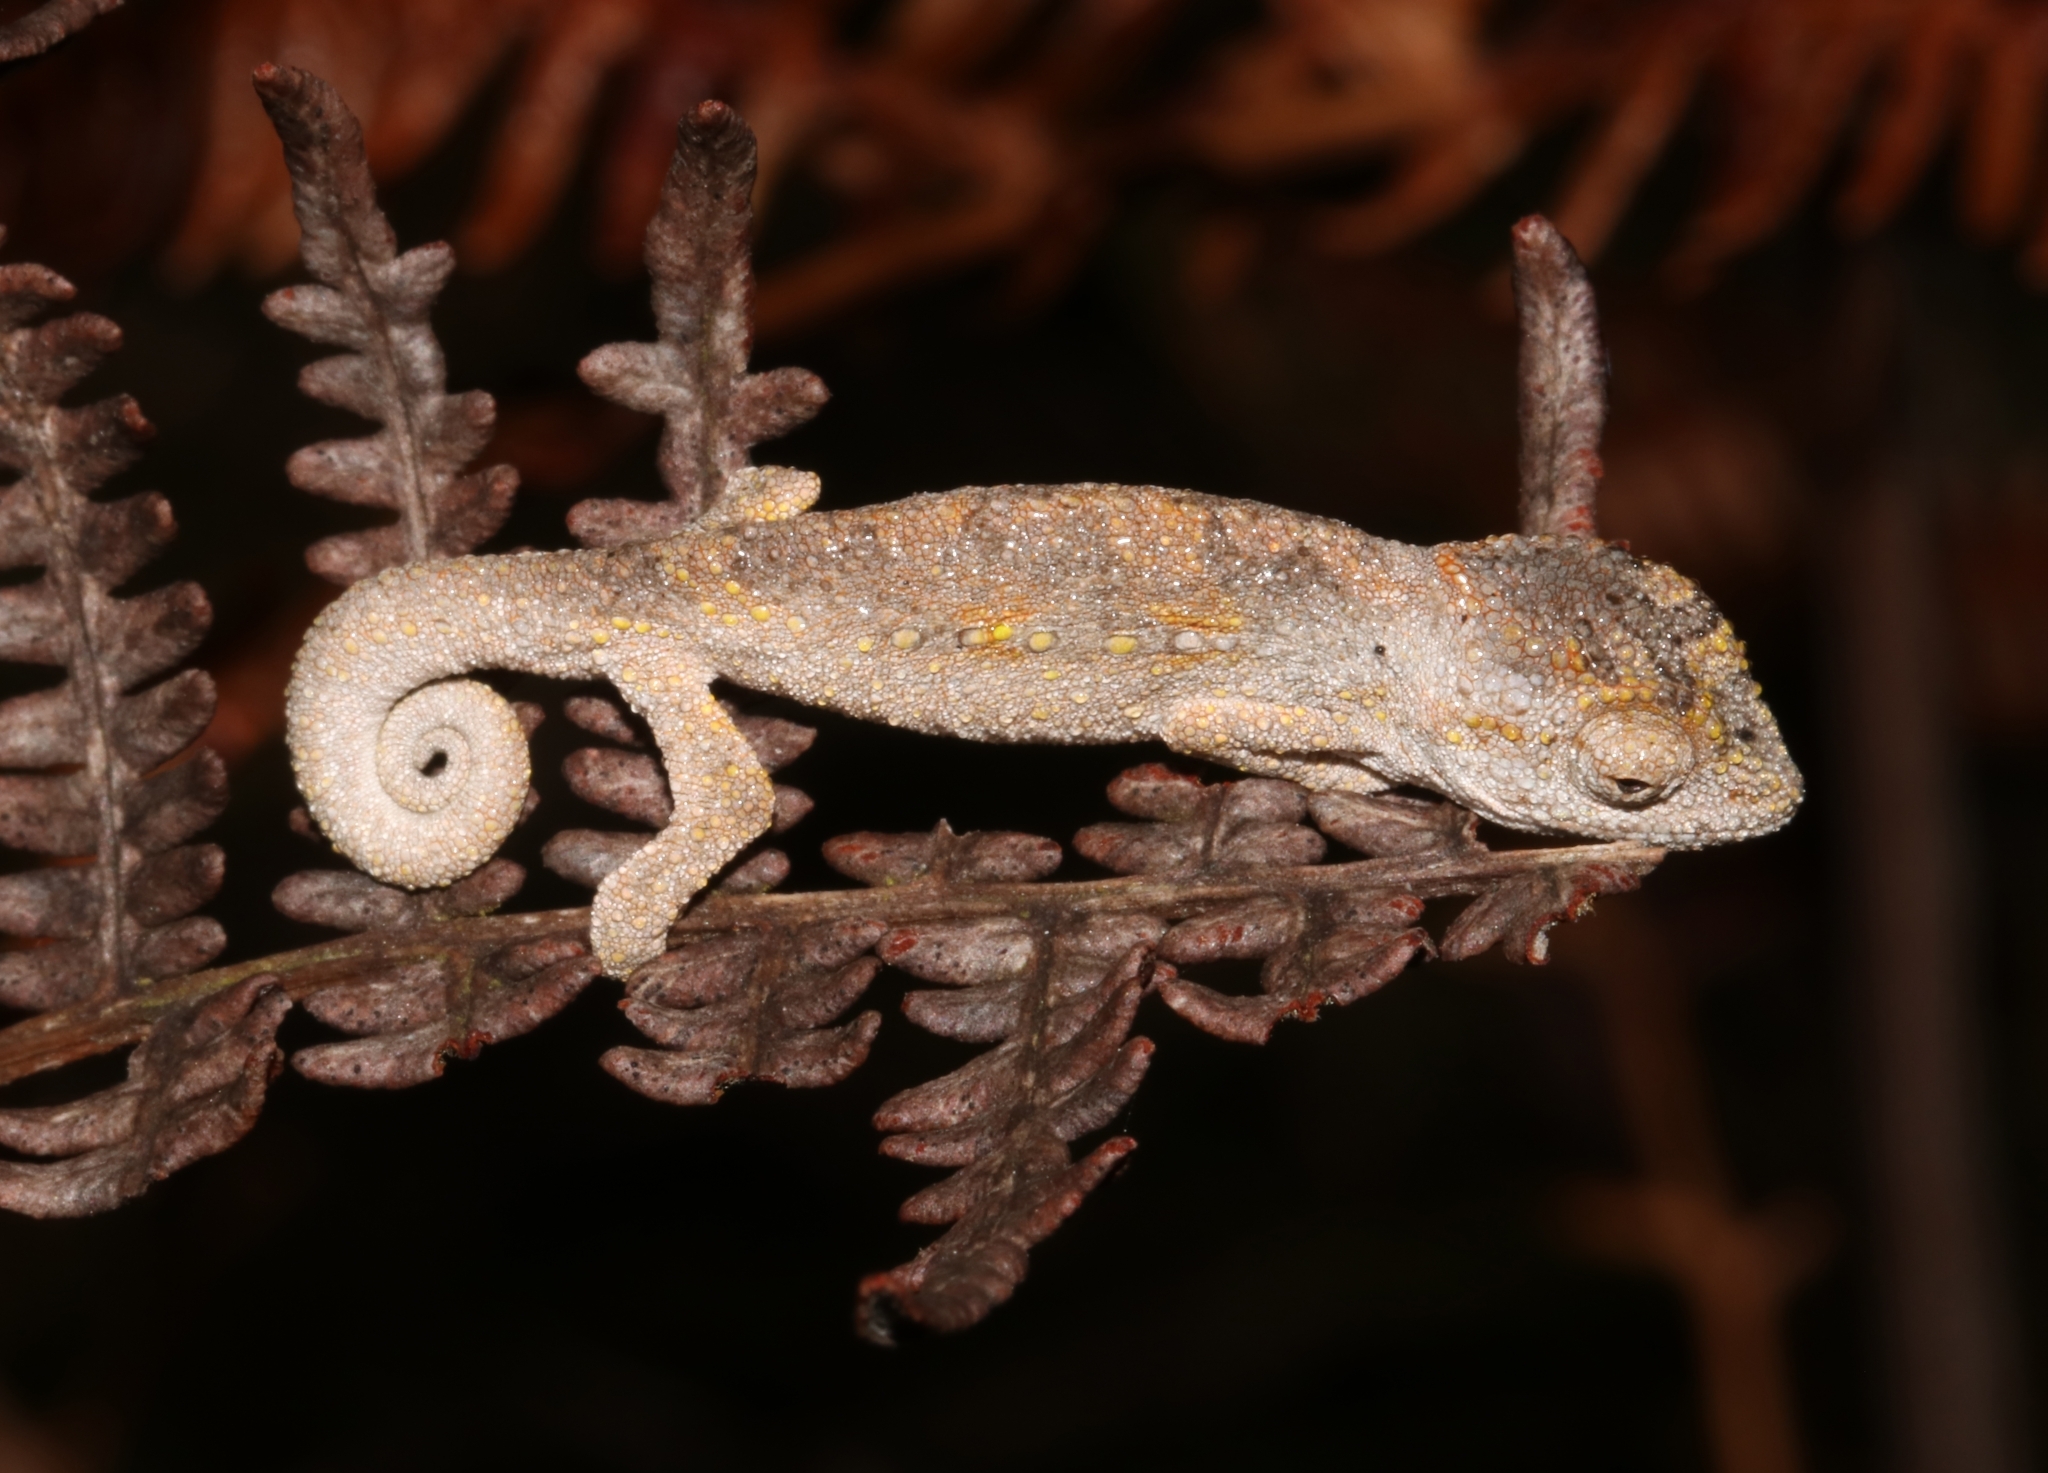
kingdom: Animalia
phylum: Chordata
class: Squamata
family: Chamaeleonidae
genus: Bradypodion
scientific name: Bradypodion gutturale
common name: Little karoo dwarf chameleon
